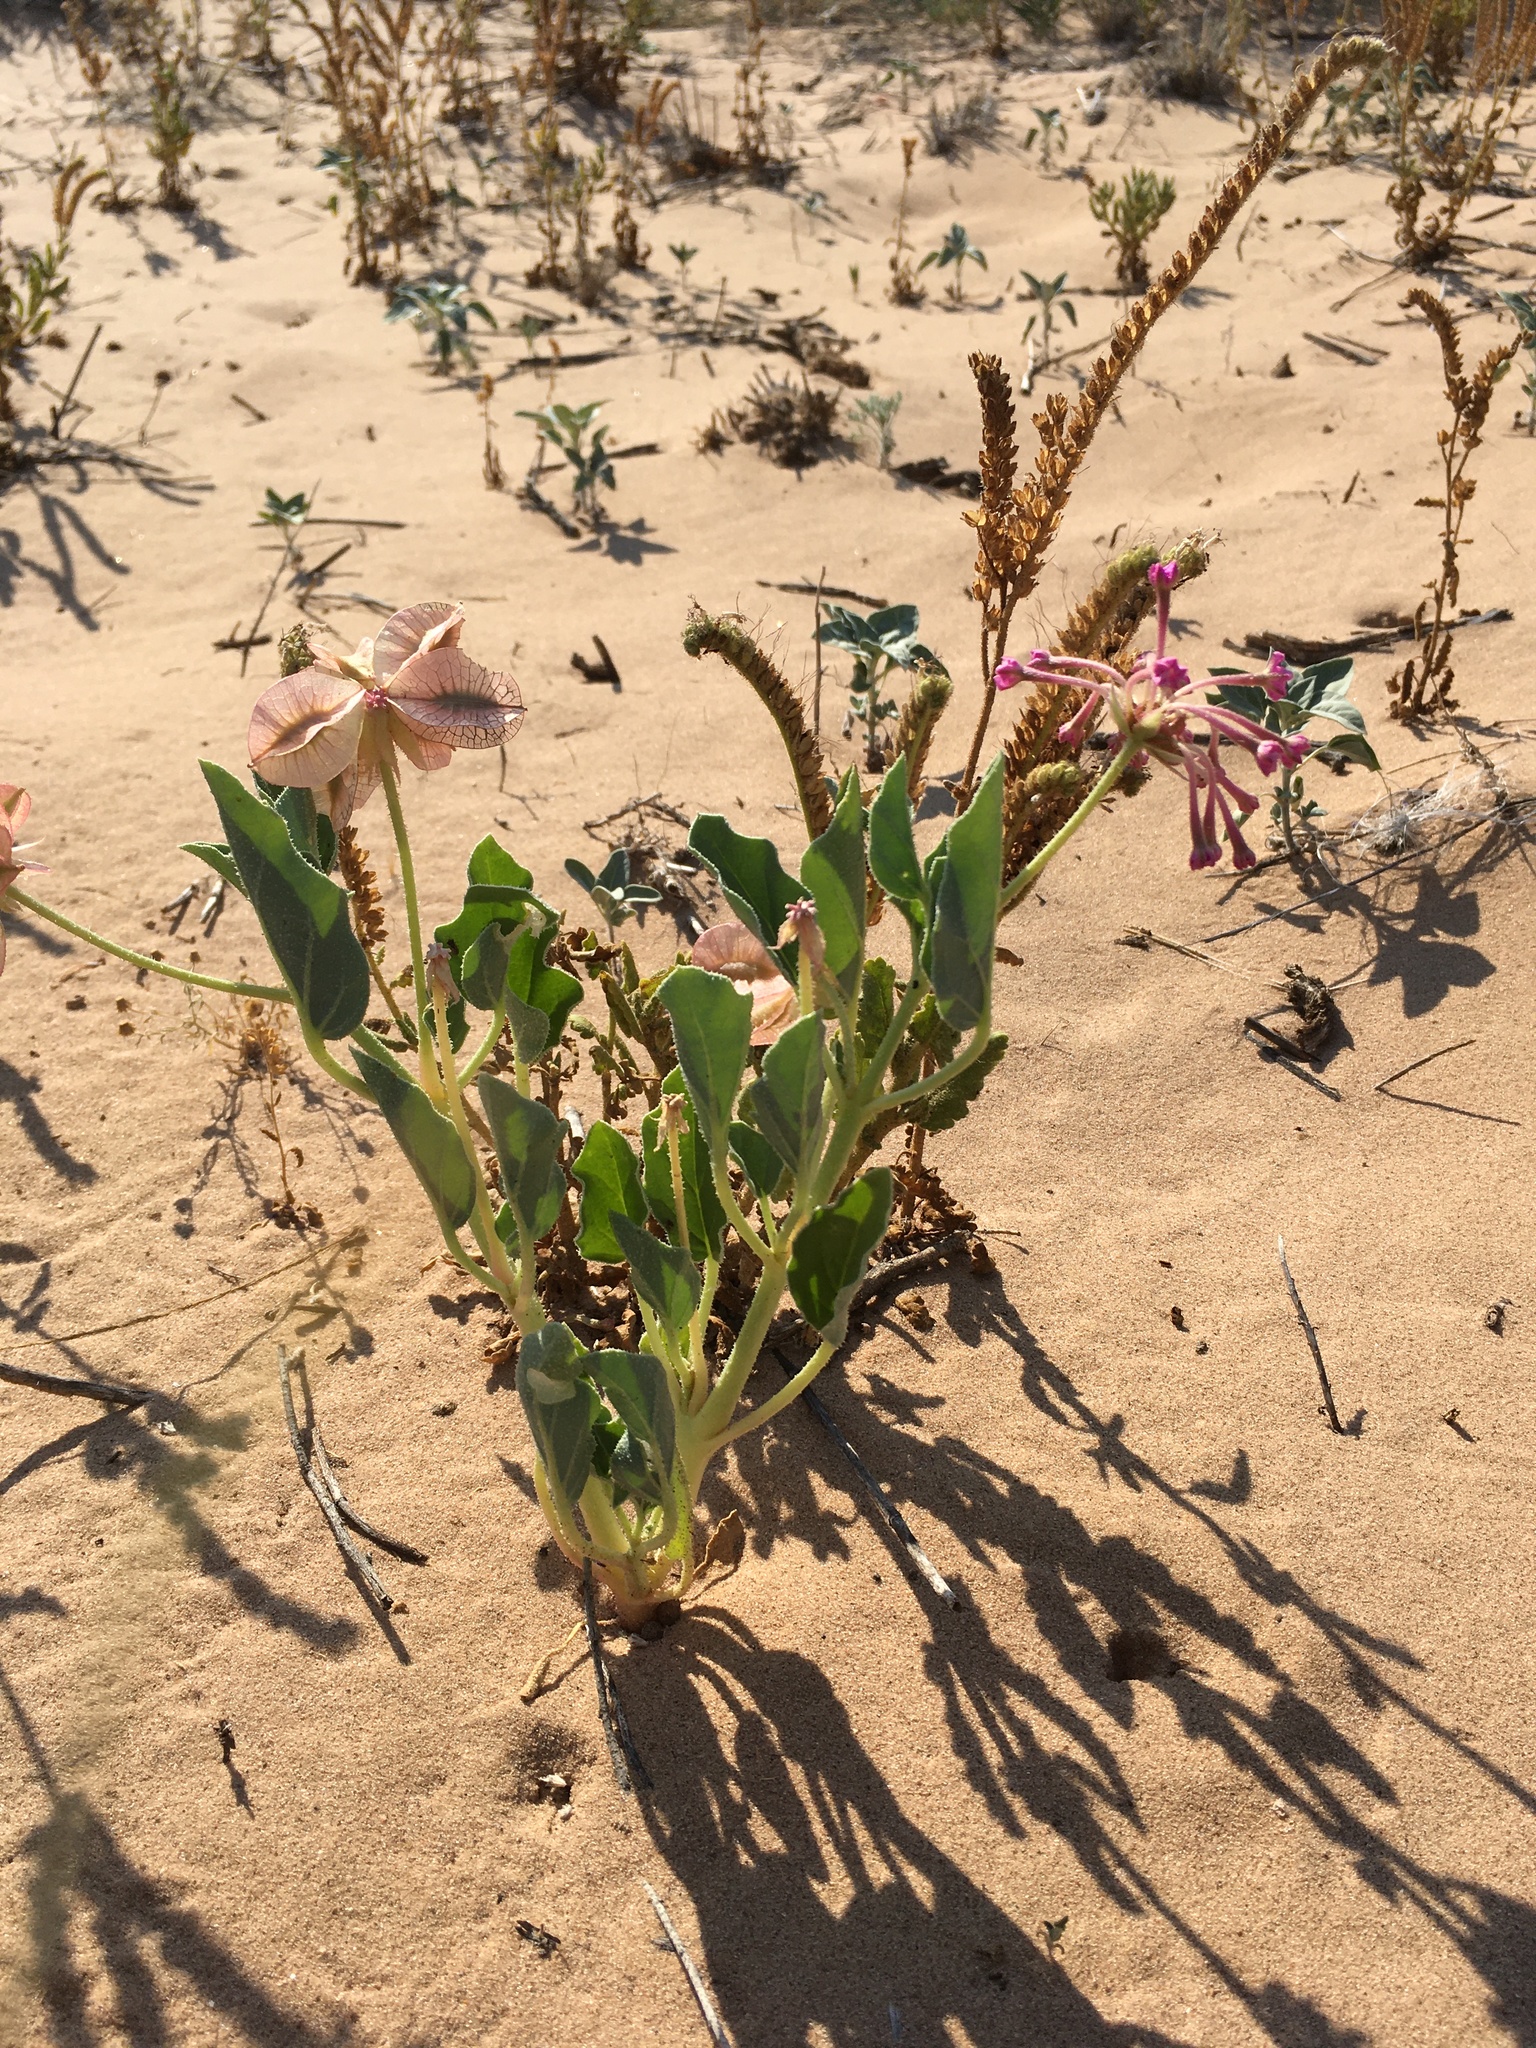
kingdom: Plantae
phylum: Tracheophyta
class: Magnoliopsida
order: Caryophyllales
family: Nyctaginaceae
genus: Tripterocalyx
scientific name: Tripterocalyx carneus
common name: Winged sandpuffs
